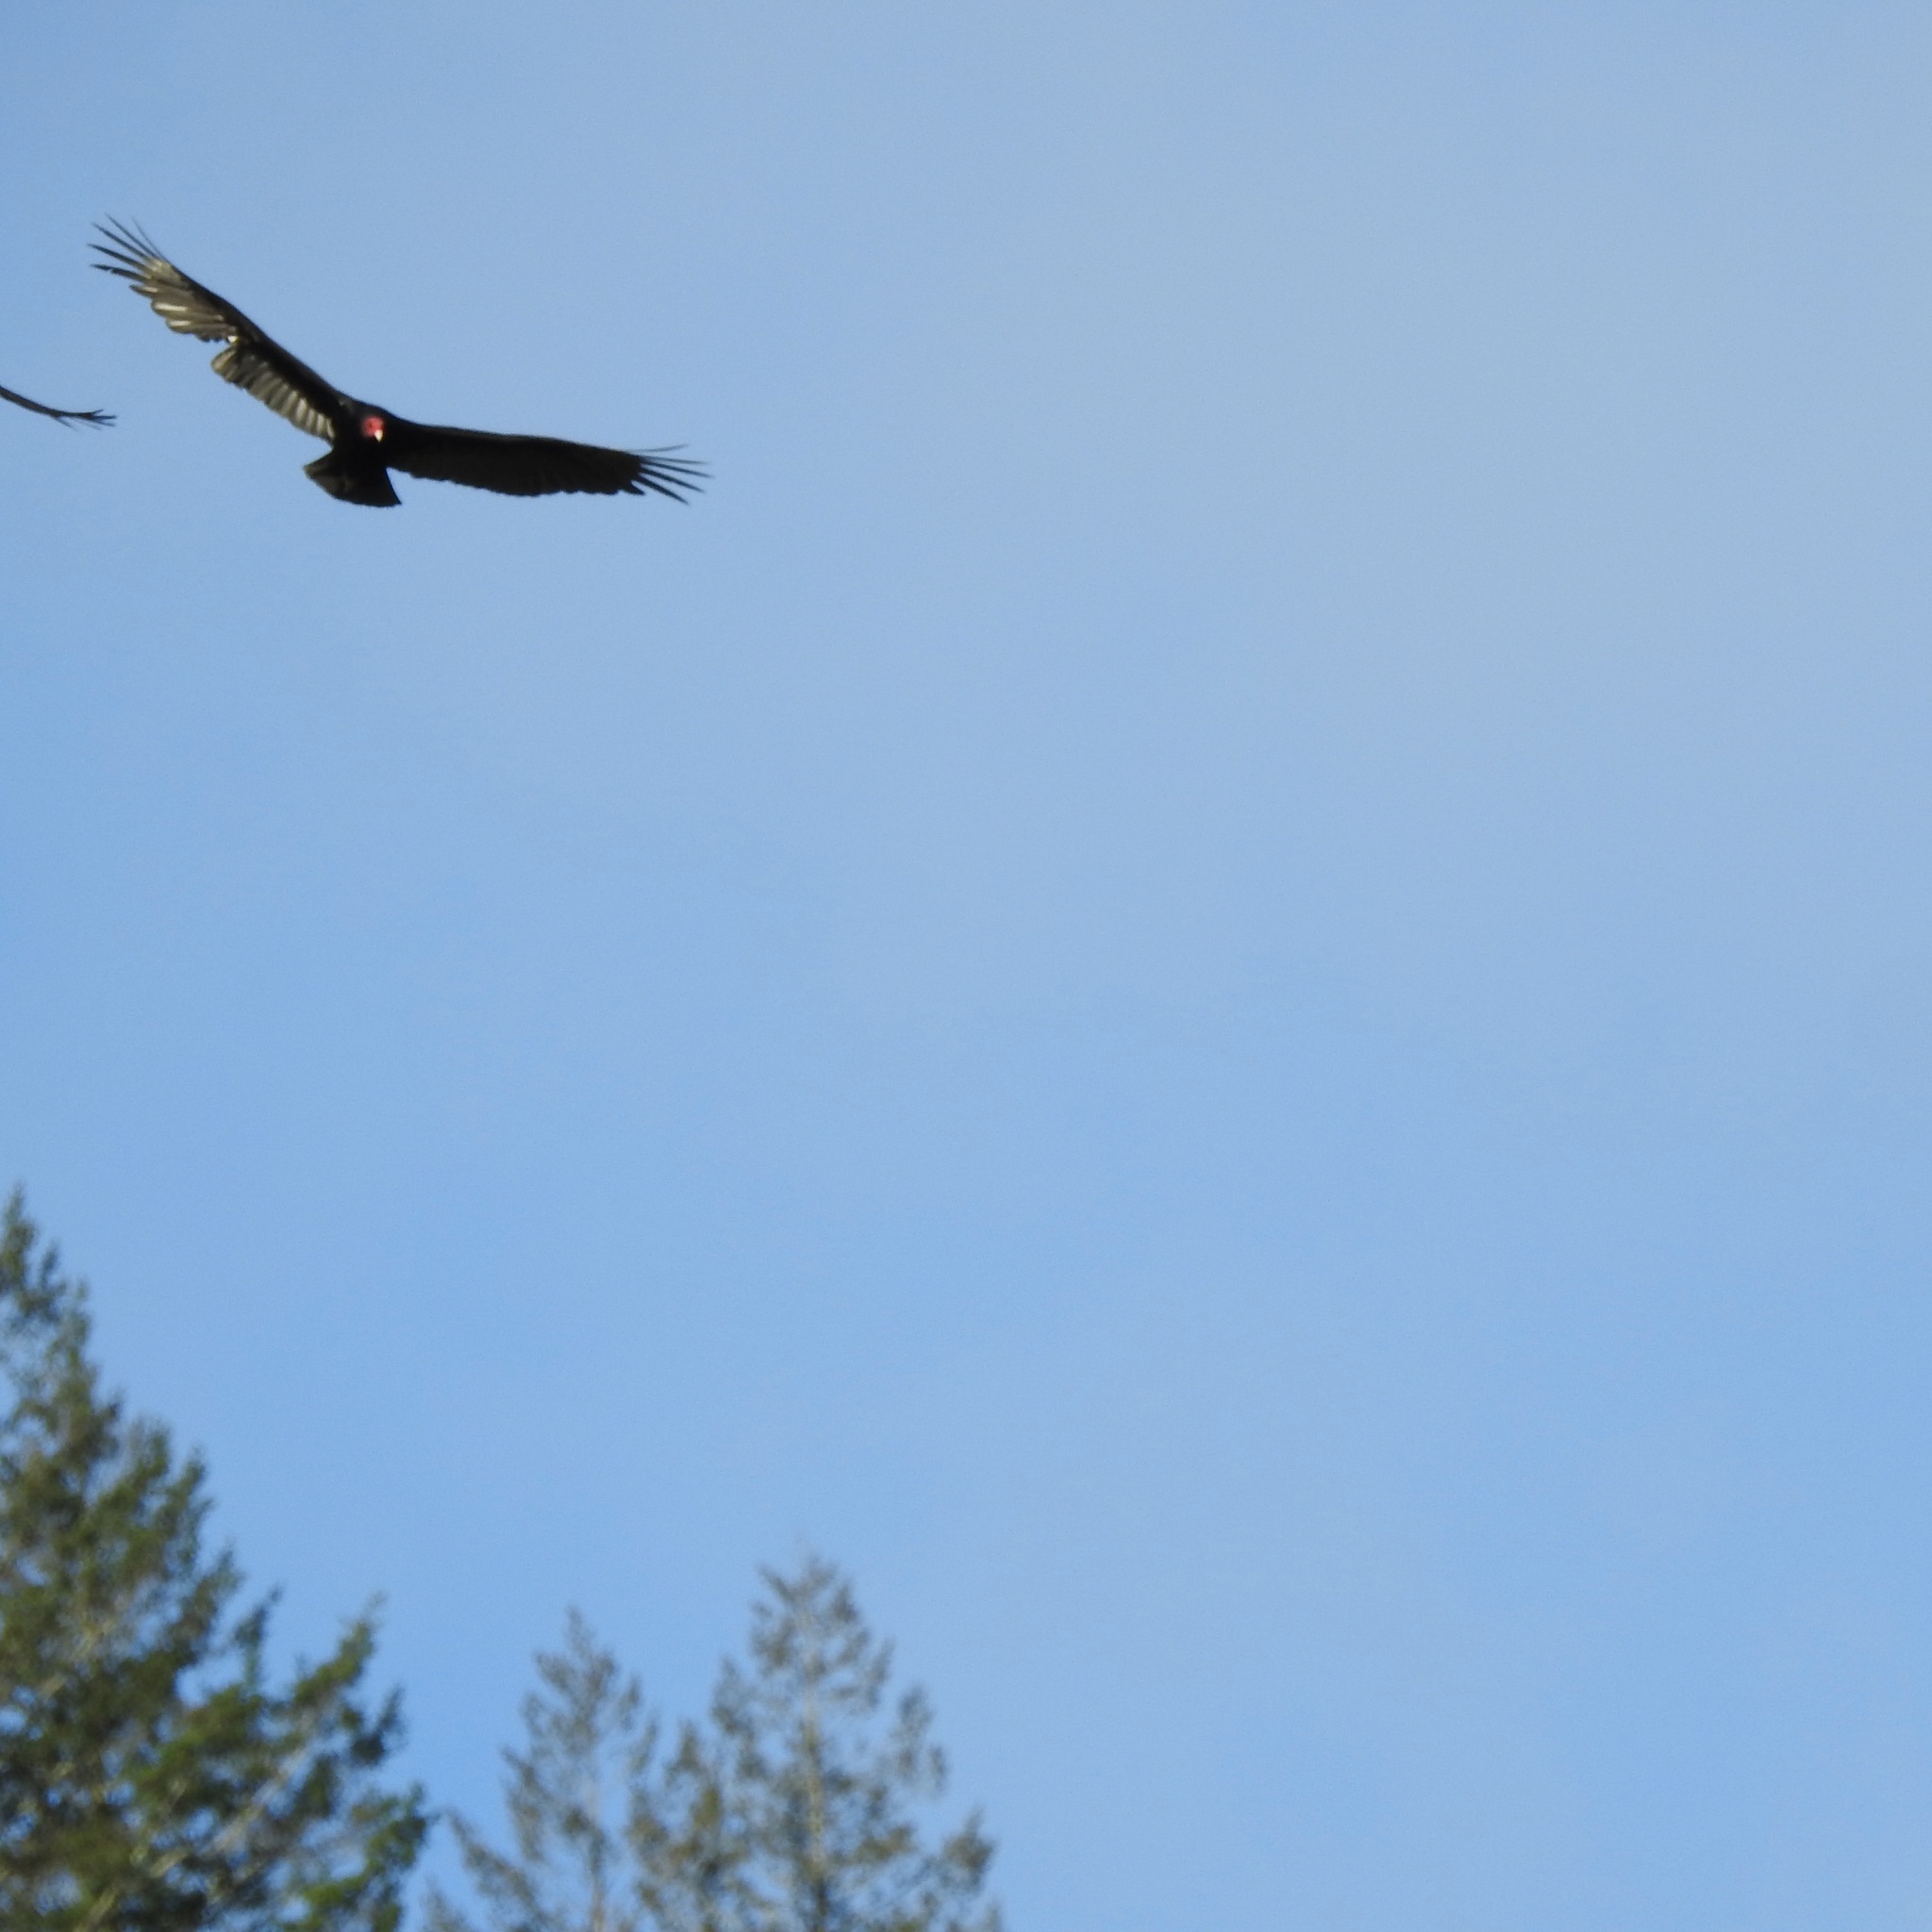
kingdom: Animalia
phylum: Chordata
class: Aves
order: Accipitriformes
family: Cathartidae
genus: Cathartes
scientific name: Cathartes aura
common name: Turkey vulture
